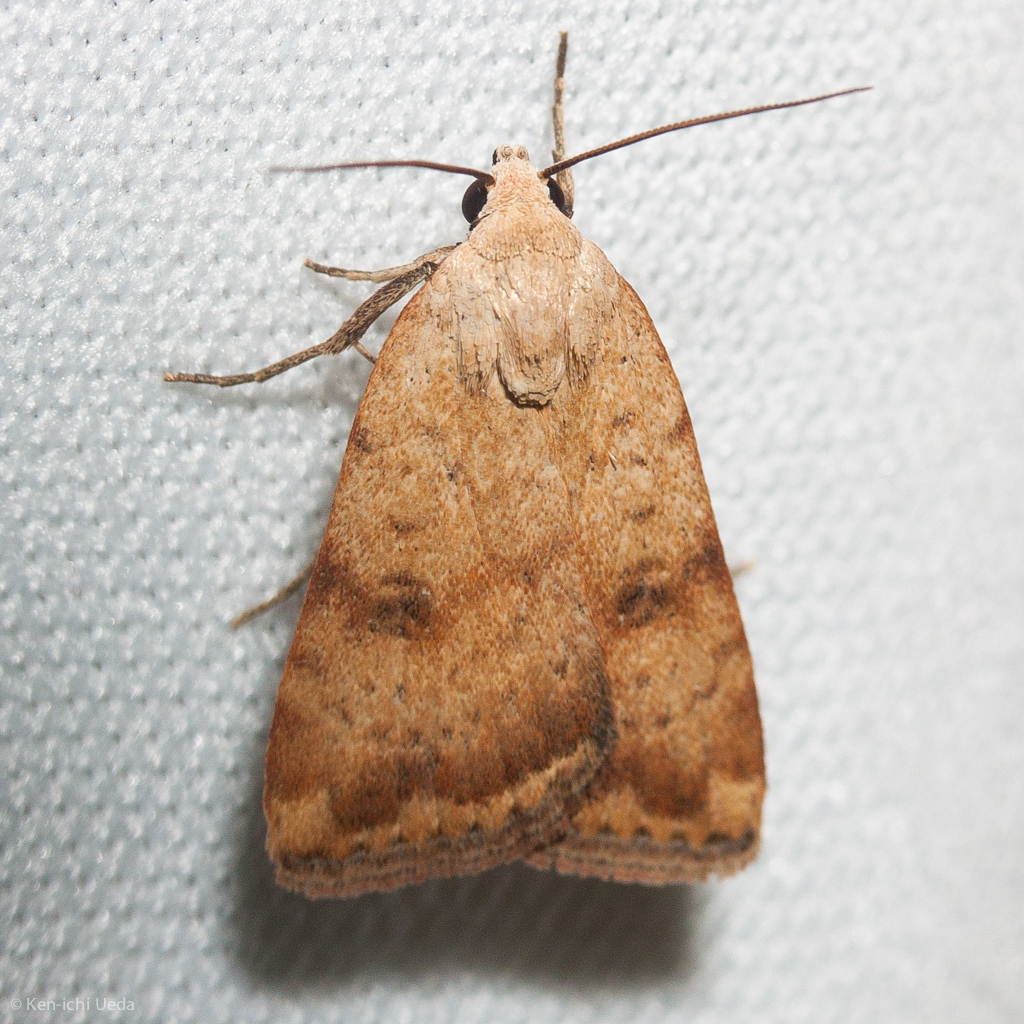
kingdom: Animalia
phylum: Arthropoda
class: Insecta
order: Lepidoptera
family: Noctuidae
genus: Micrathetis
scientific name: Micrathetis triplex
